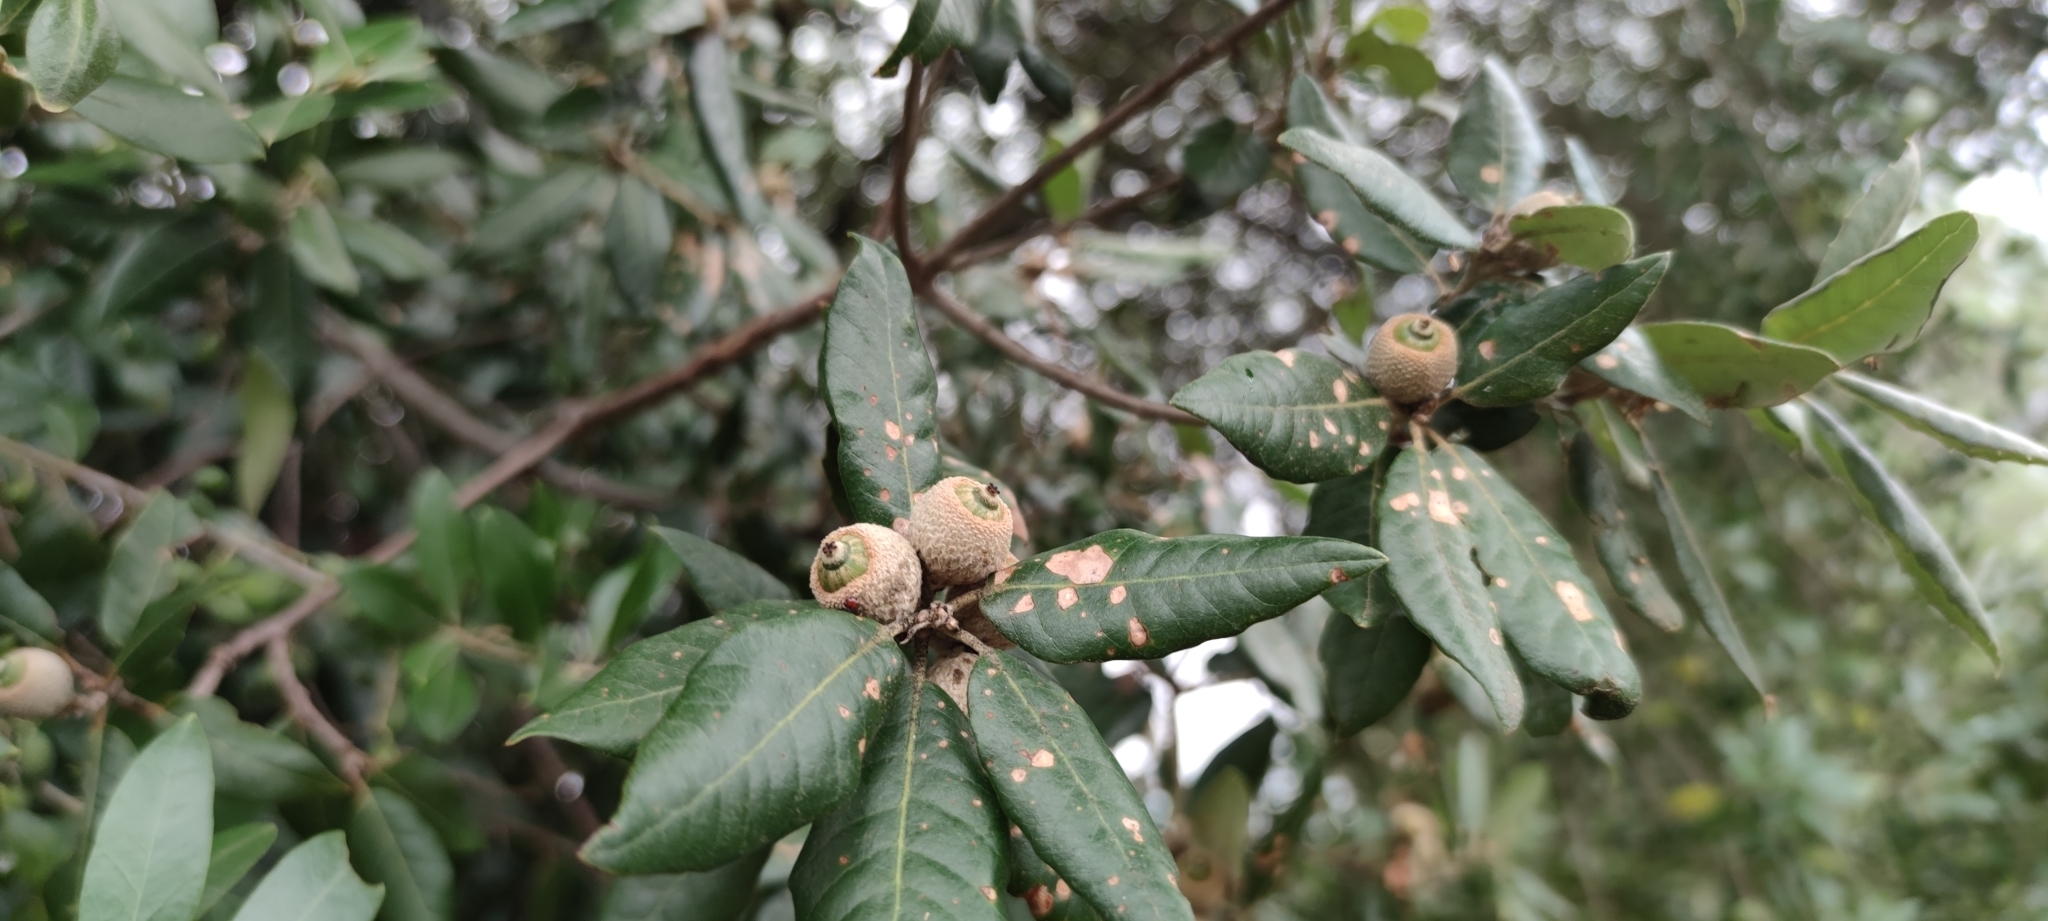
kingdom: Plantae
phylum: Tracheophyta
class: Magnoliopsida
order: Fagales
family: Fagaceae
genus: Quercus
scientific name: Quercus ilex
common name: Evergreen oak
